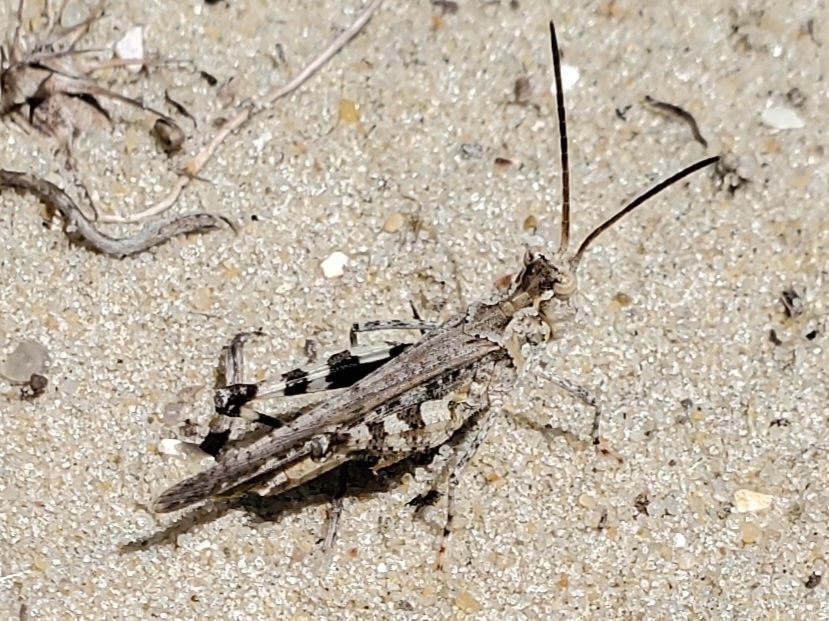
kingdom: Animalia
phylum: Arthropoda
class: Insecta
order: Orthoptera
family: Acrididae
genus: Psinidia
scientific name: Psinidia fenestralis
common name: Long-horned locust
